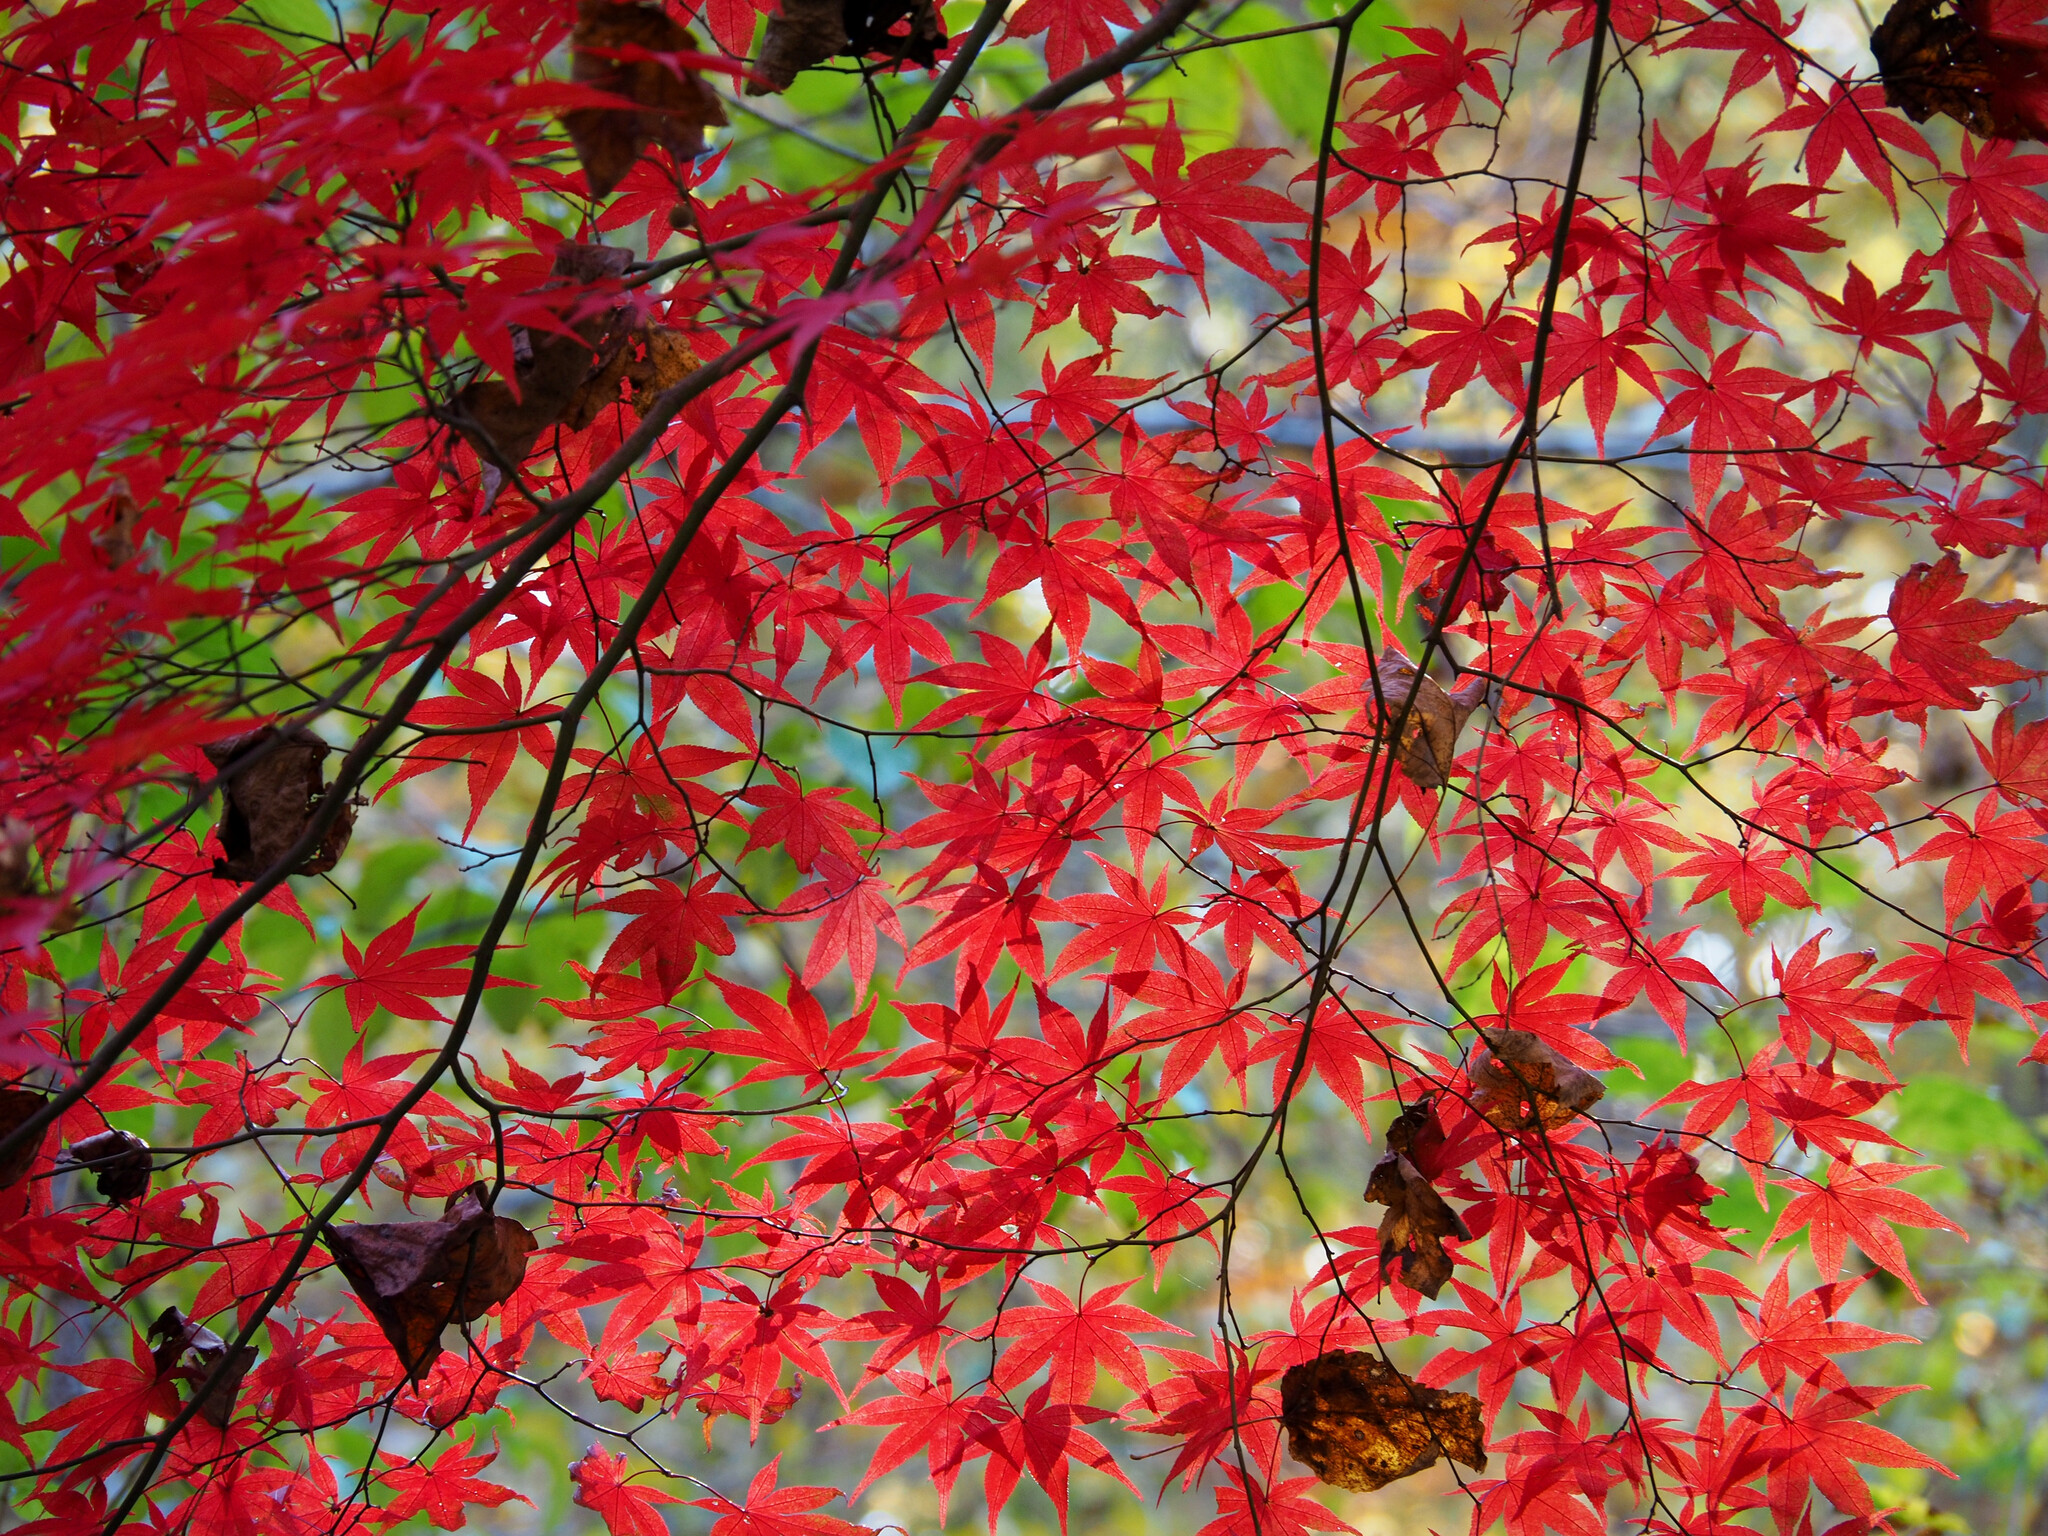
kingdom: Plantae
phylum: Tracheophyta
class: Magnoliopsida
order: Sapindales
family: Sapindaceae
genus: Acer
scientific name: Acer palmatum
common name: Japanese maple
